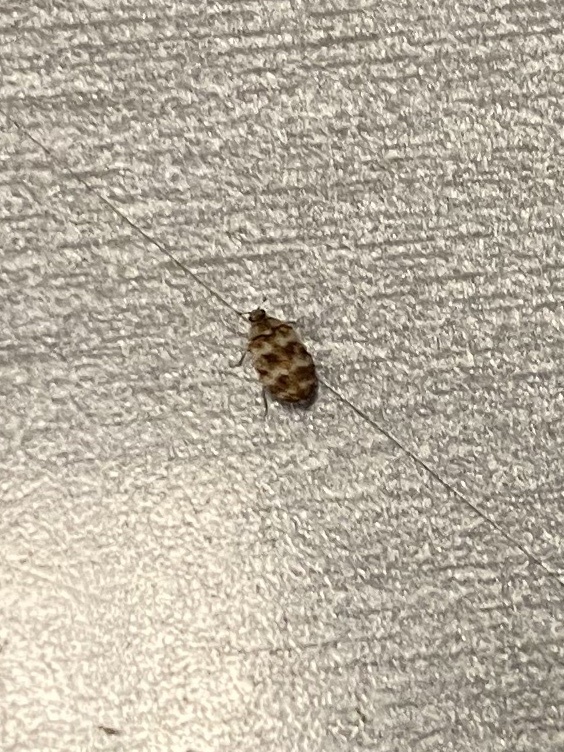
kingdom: Animalia
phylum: Arthropoda
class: Insecta
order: Coleoptera
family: Dermestidae
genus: Anthrenus
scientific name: Anthrenus coloratus
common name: Auger beetle
